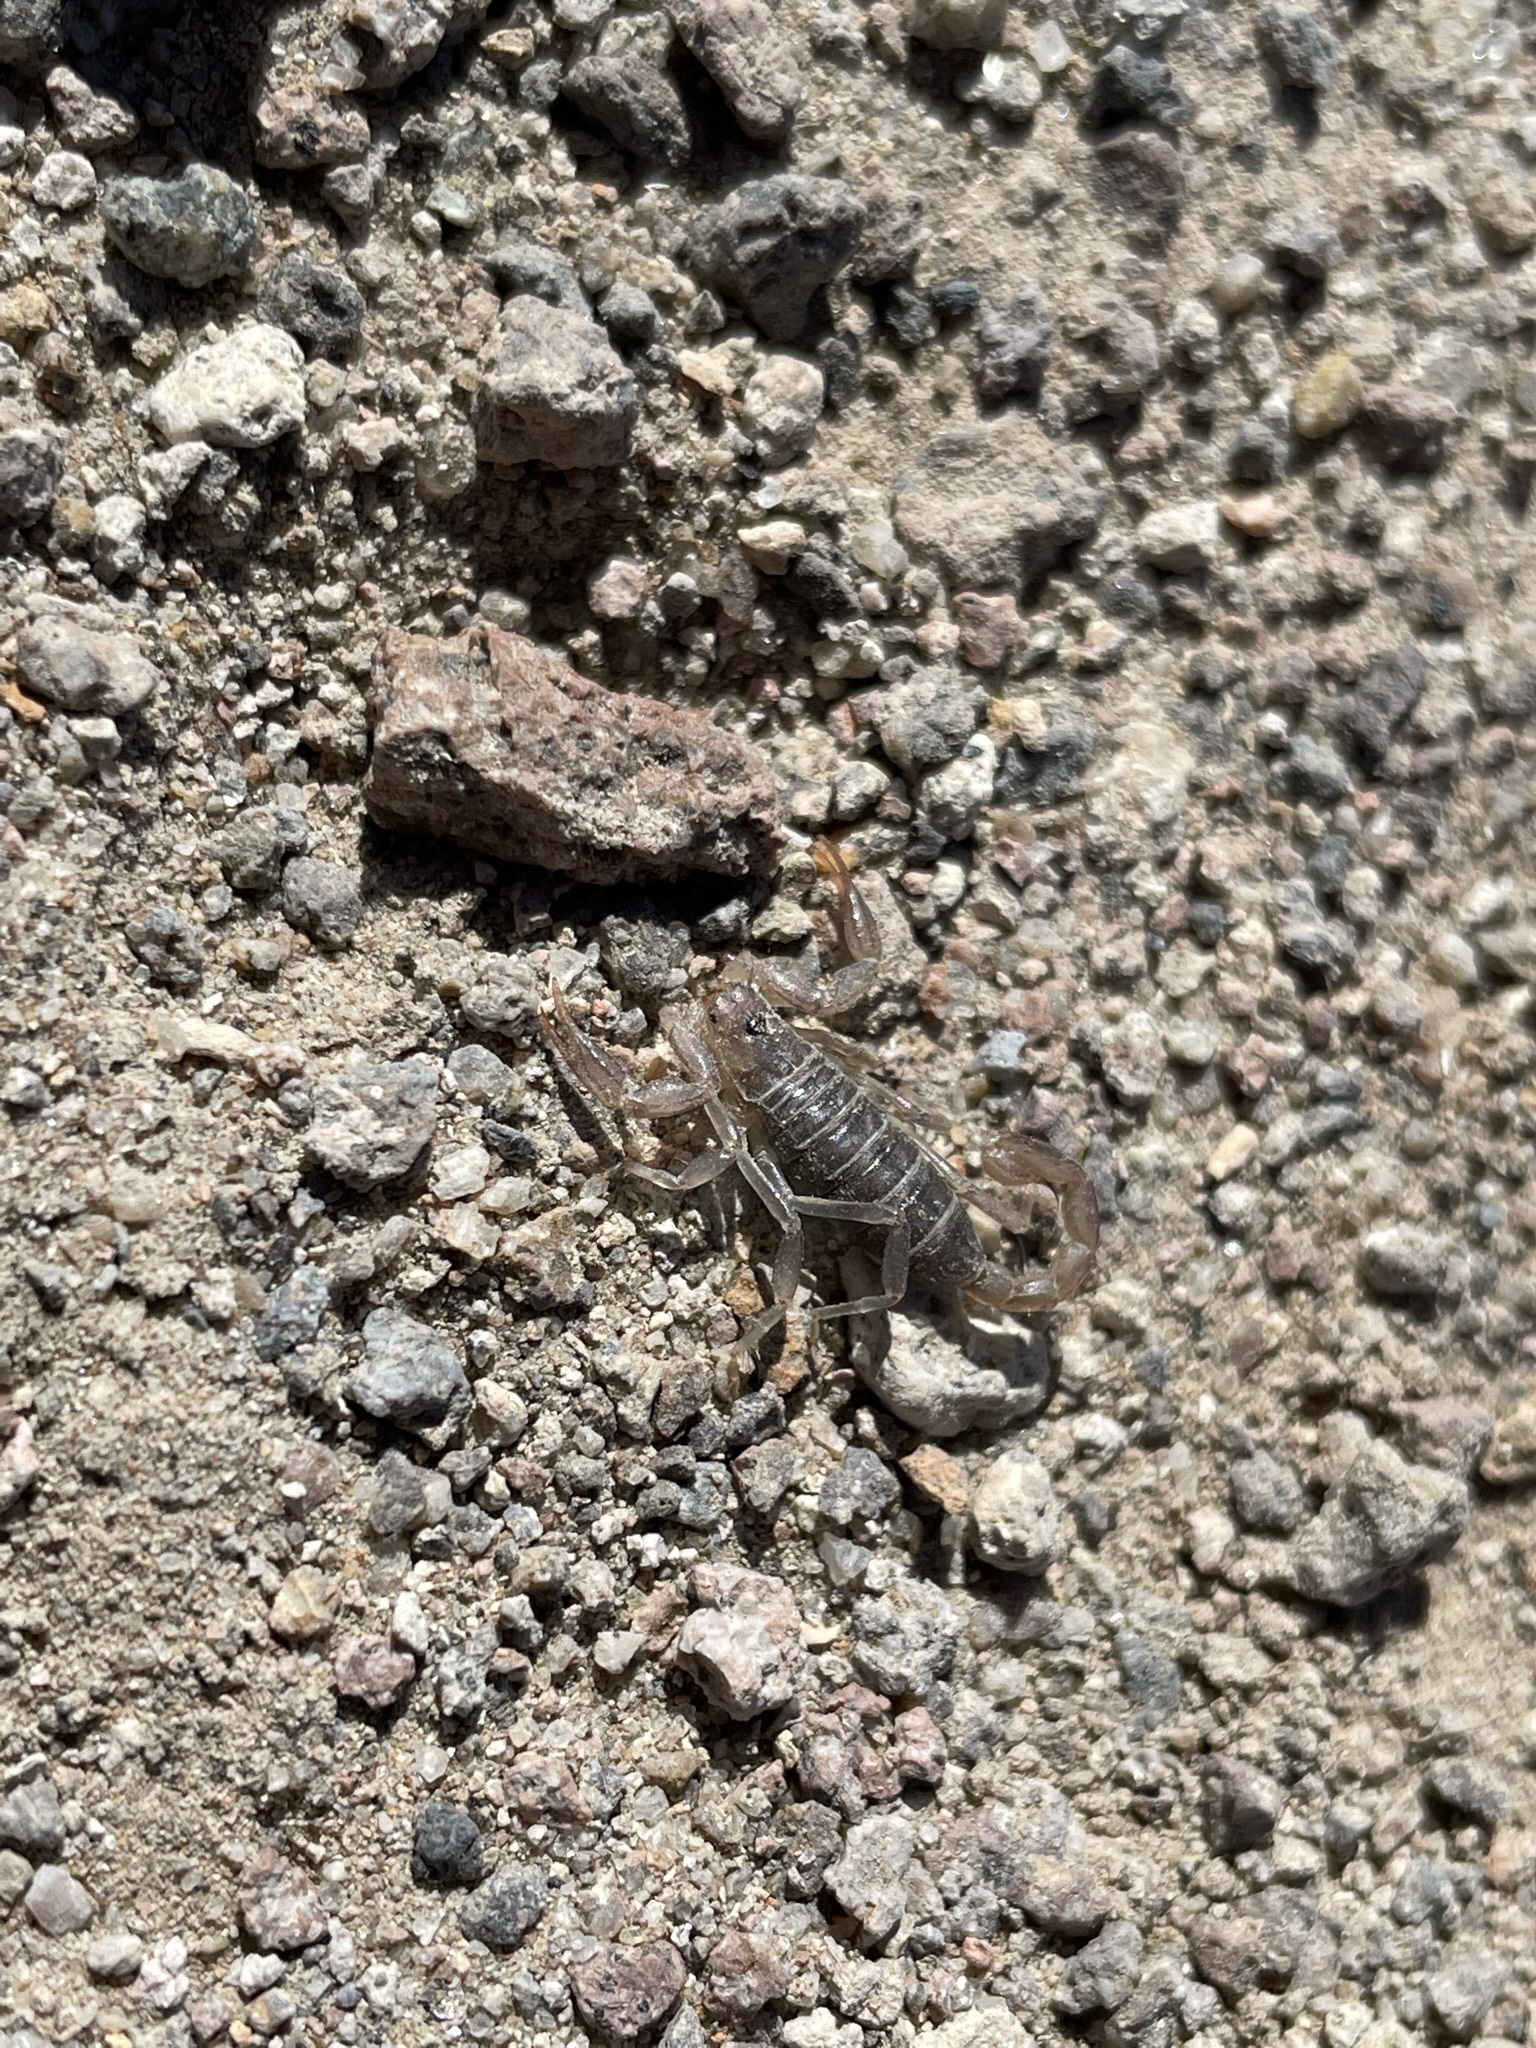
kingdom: Animalia
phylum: Arthropoda
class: Arachnida
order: Scorpiones
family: Vaejovidae
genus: Paruroctonus
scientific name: Paruroctonus boreus
